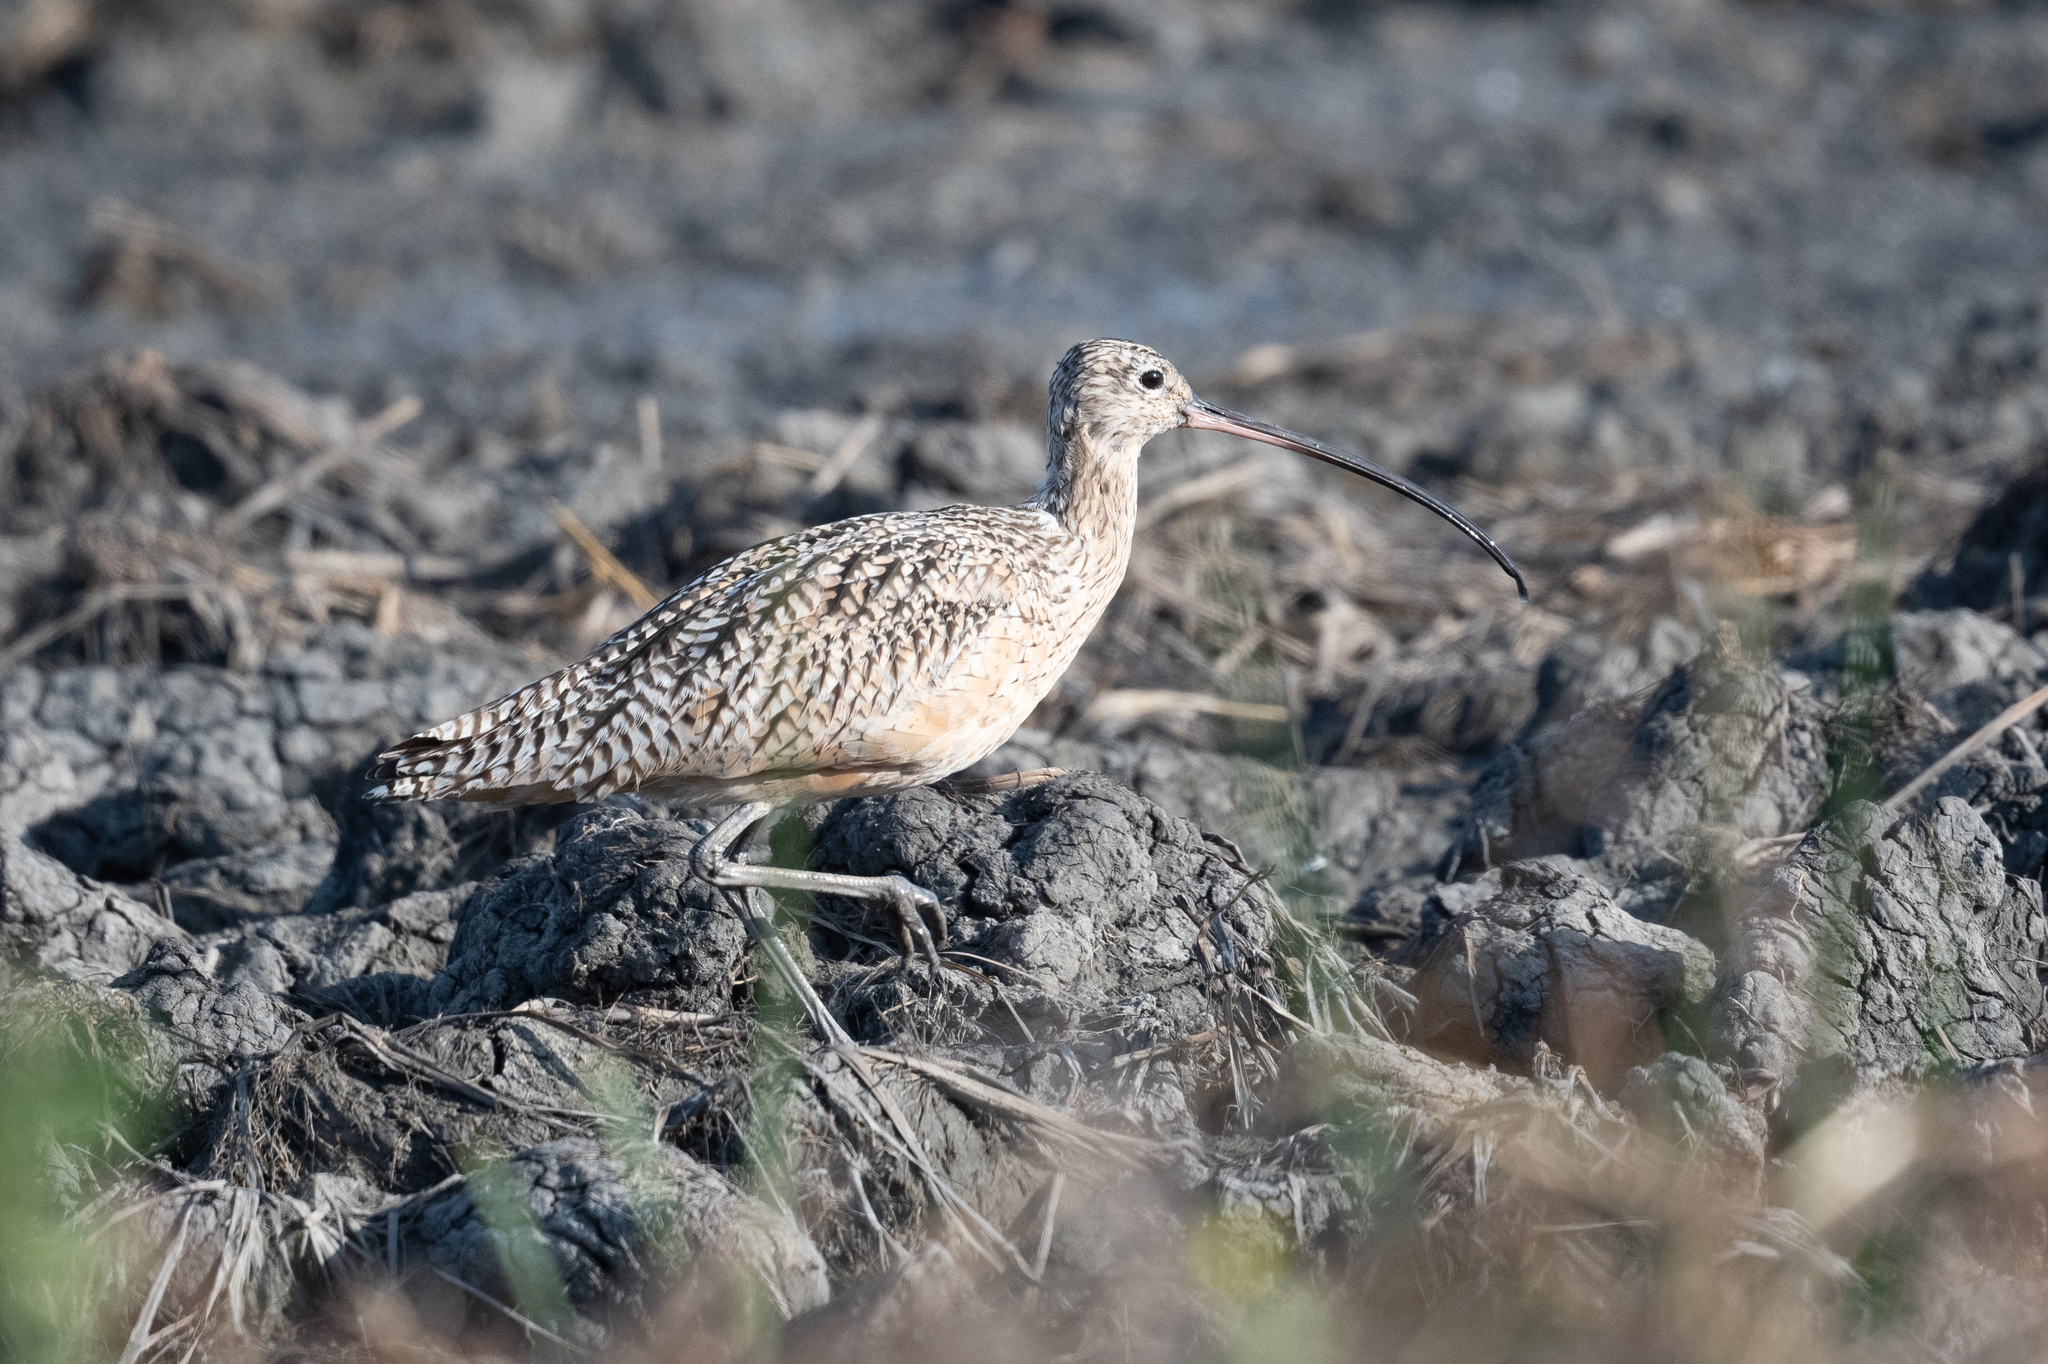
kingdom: Animalia
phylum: Chordata
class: Aves
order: Charadriiformes
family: Scolopacidae
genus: Numenius
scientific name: Numenius americanus
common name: Long-billed curlew
